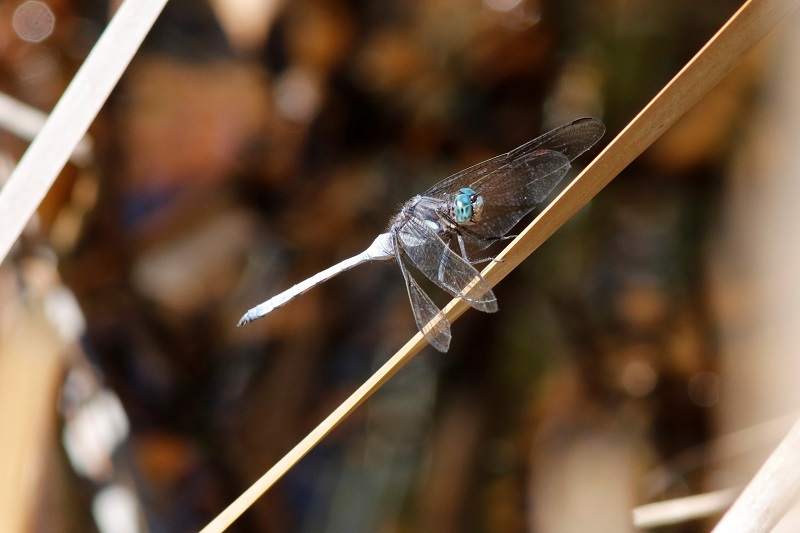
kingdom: Animalia
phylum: Arthropoda
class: Insecta
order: Odonata
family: Libellulidae
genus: Orthetrum
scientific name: Orthetrum julia
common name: Julia skimmer
